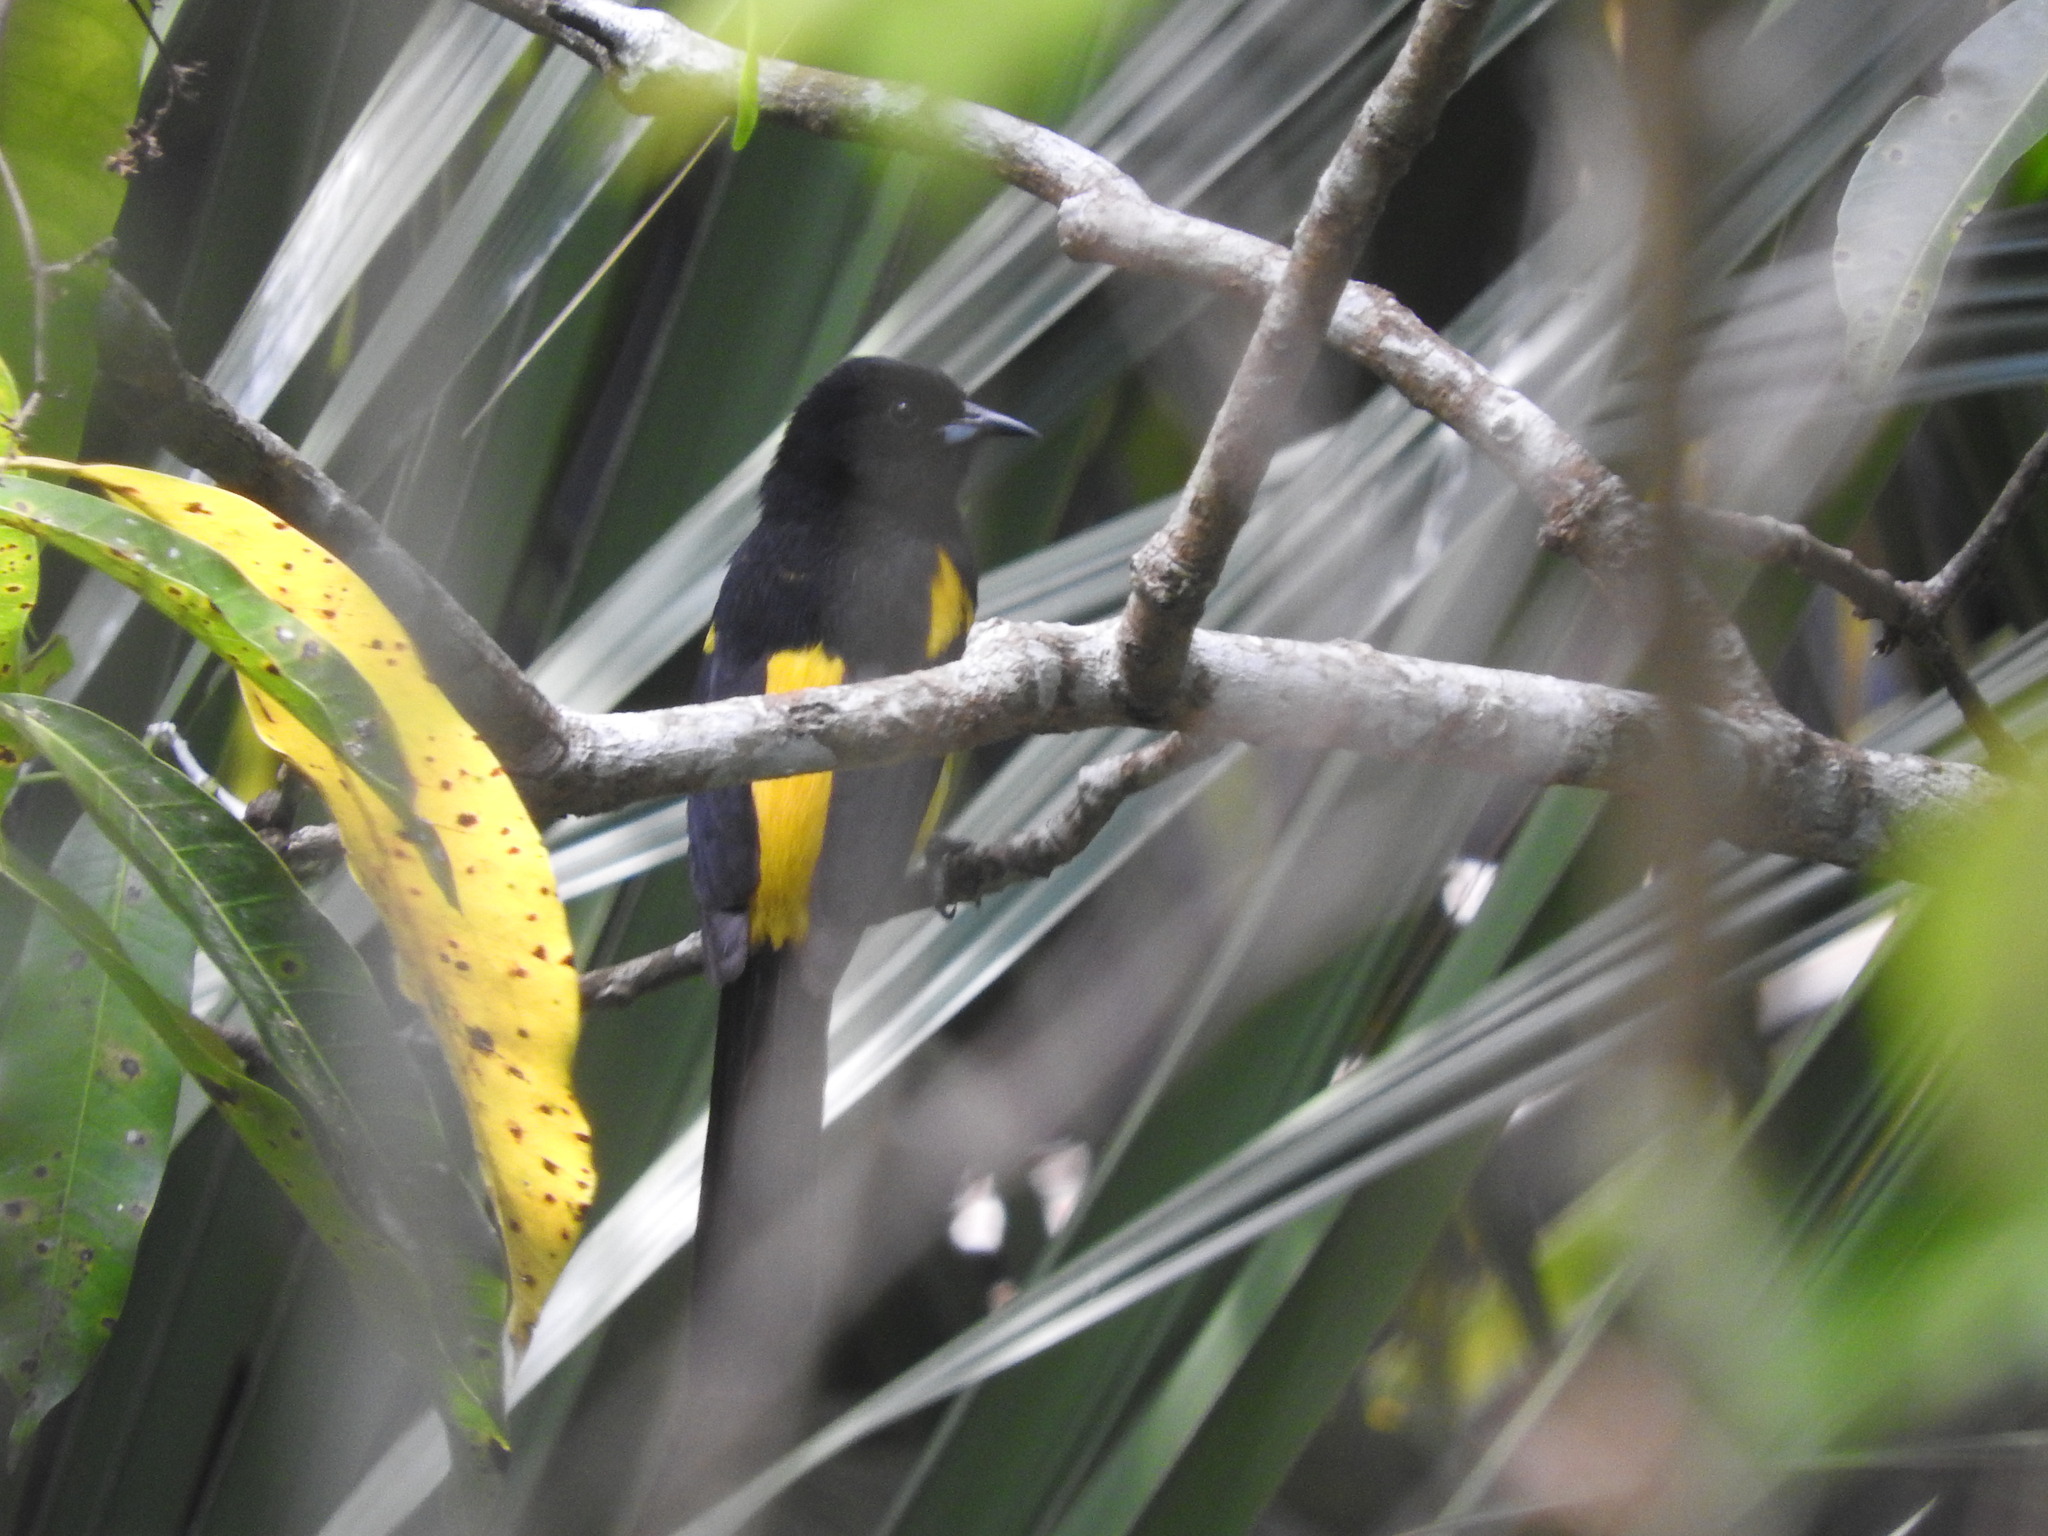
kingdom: Animalia
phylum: Chordata
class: Aves
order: Passeriformes
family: Icteridae
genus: Icterus
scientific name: Icterus prosthemelas
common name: Black-cowled oriole
